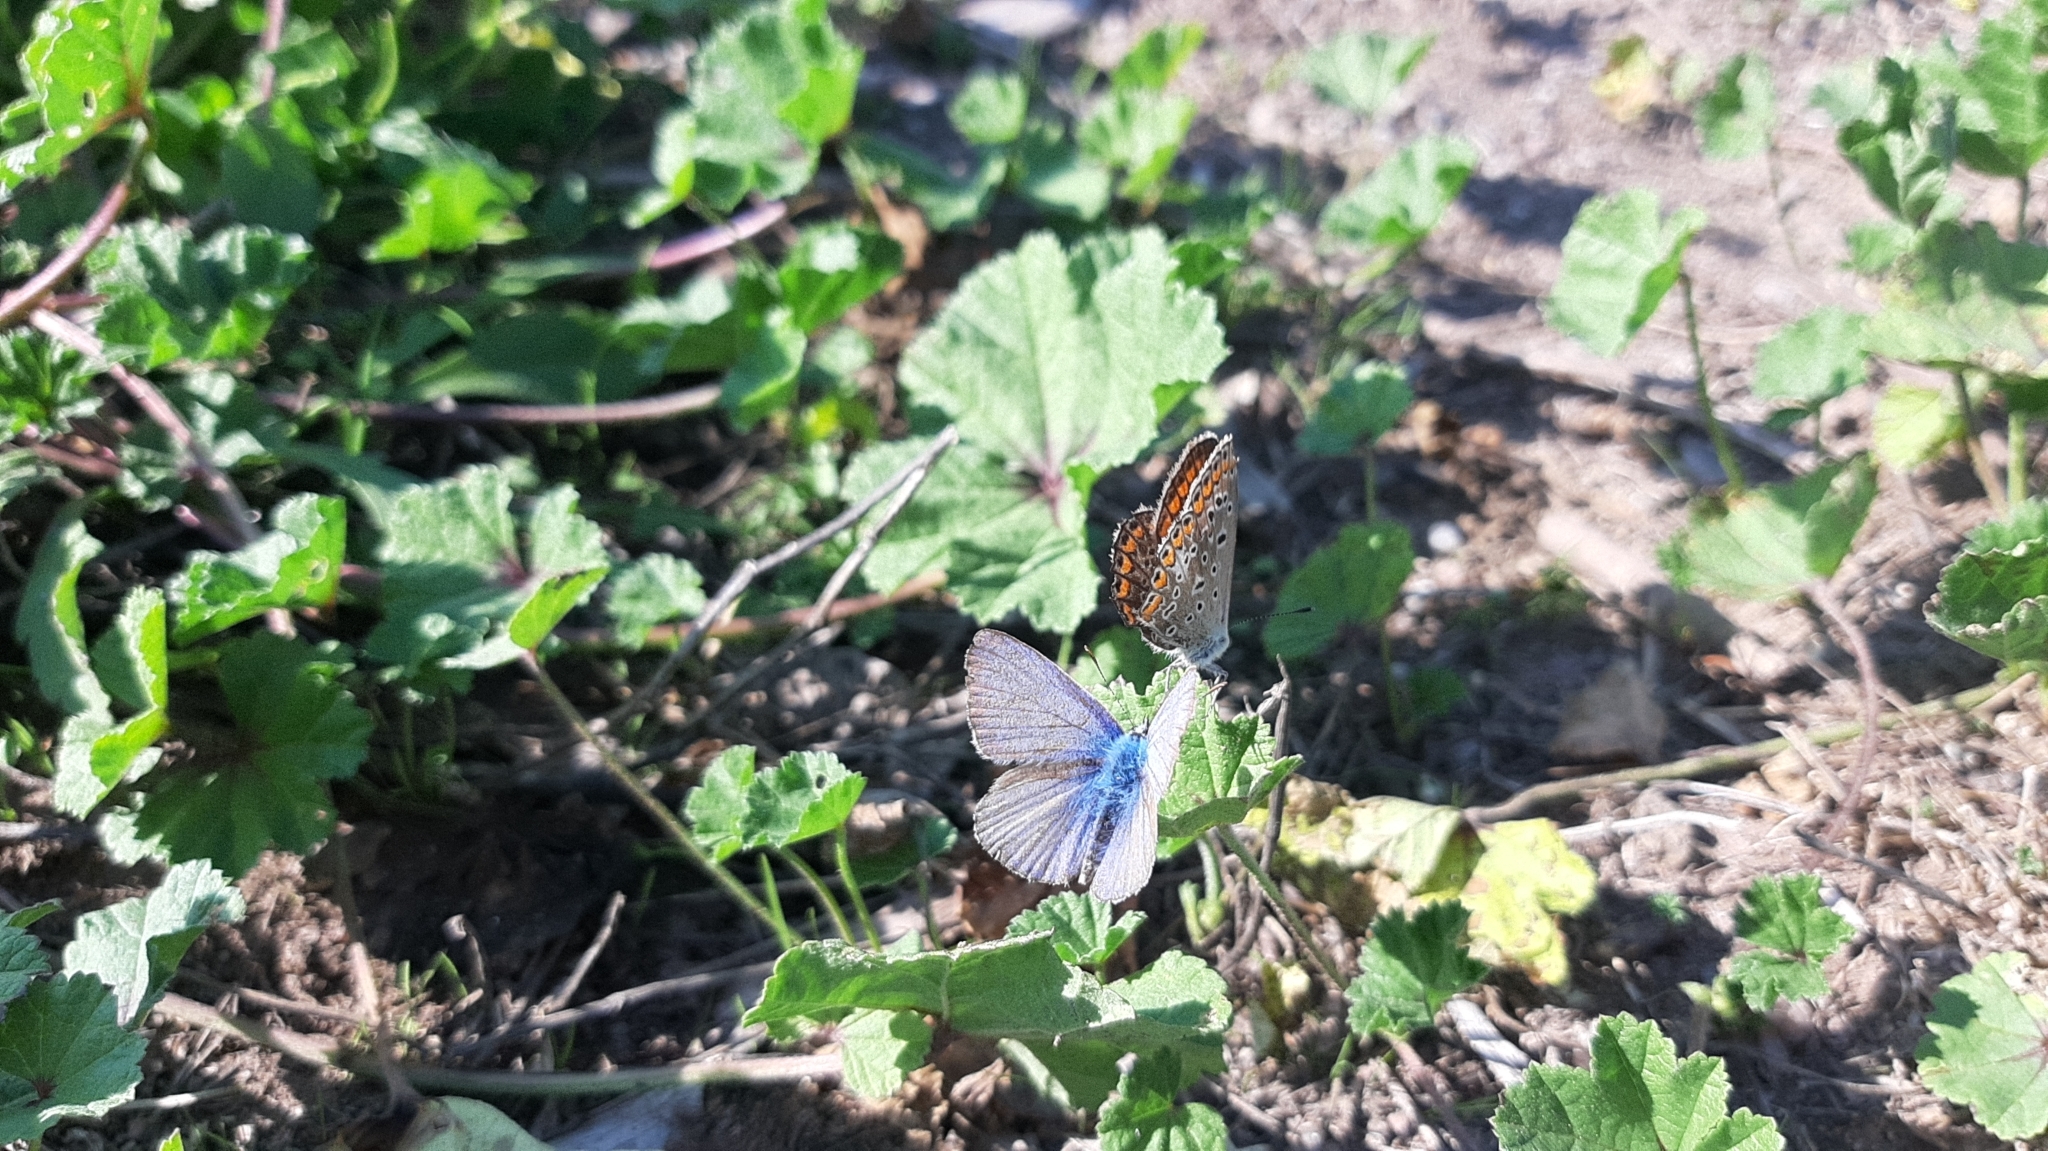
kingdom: Animalia
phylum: Arthropoda
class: Insecta
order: Lepidoptera
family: Lycaenidae
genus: Polyommatus
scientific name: Polyommatus icarus
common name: Common blue
